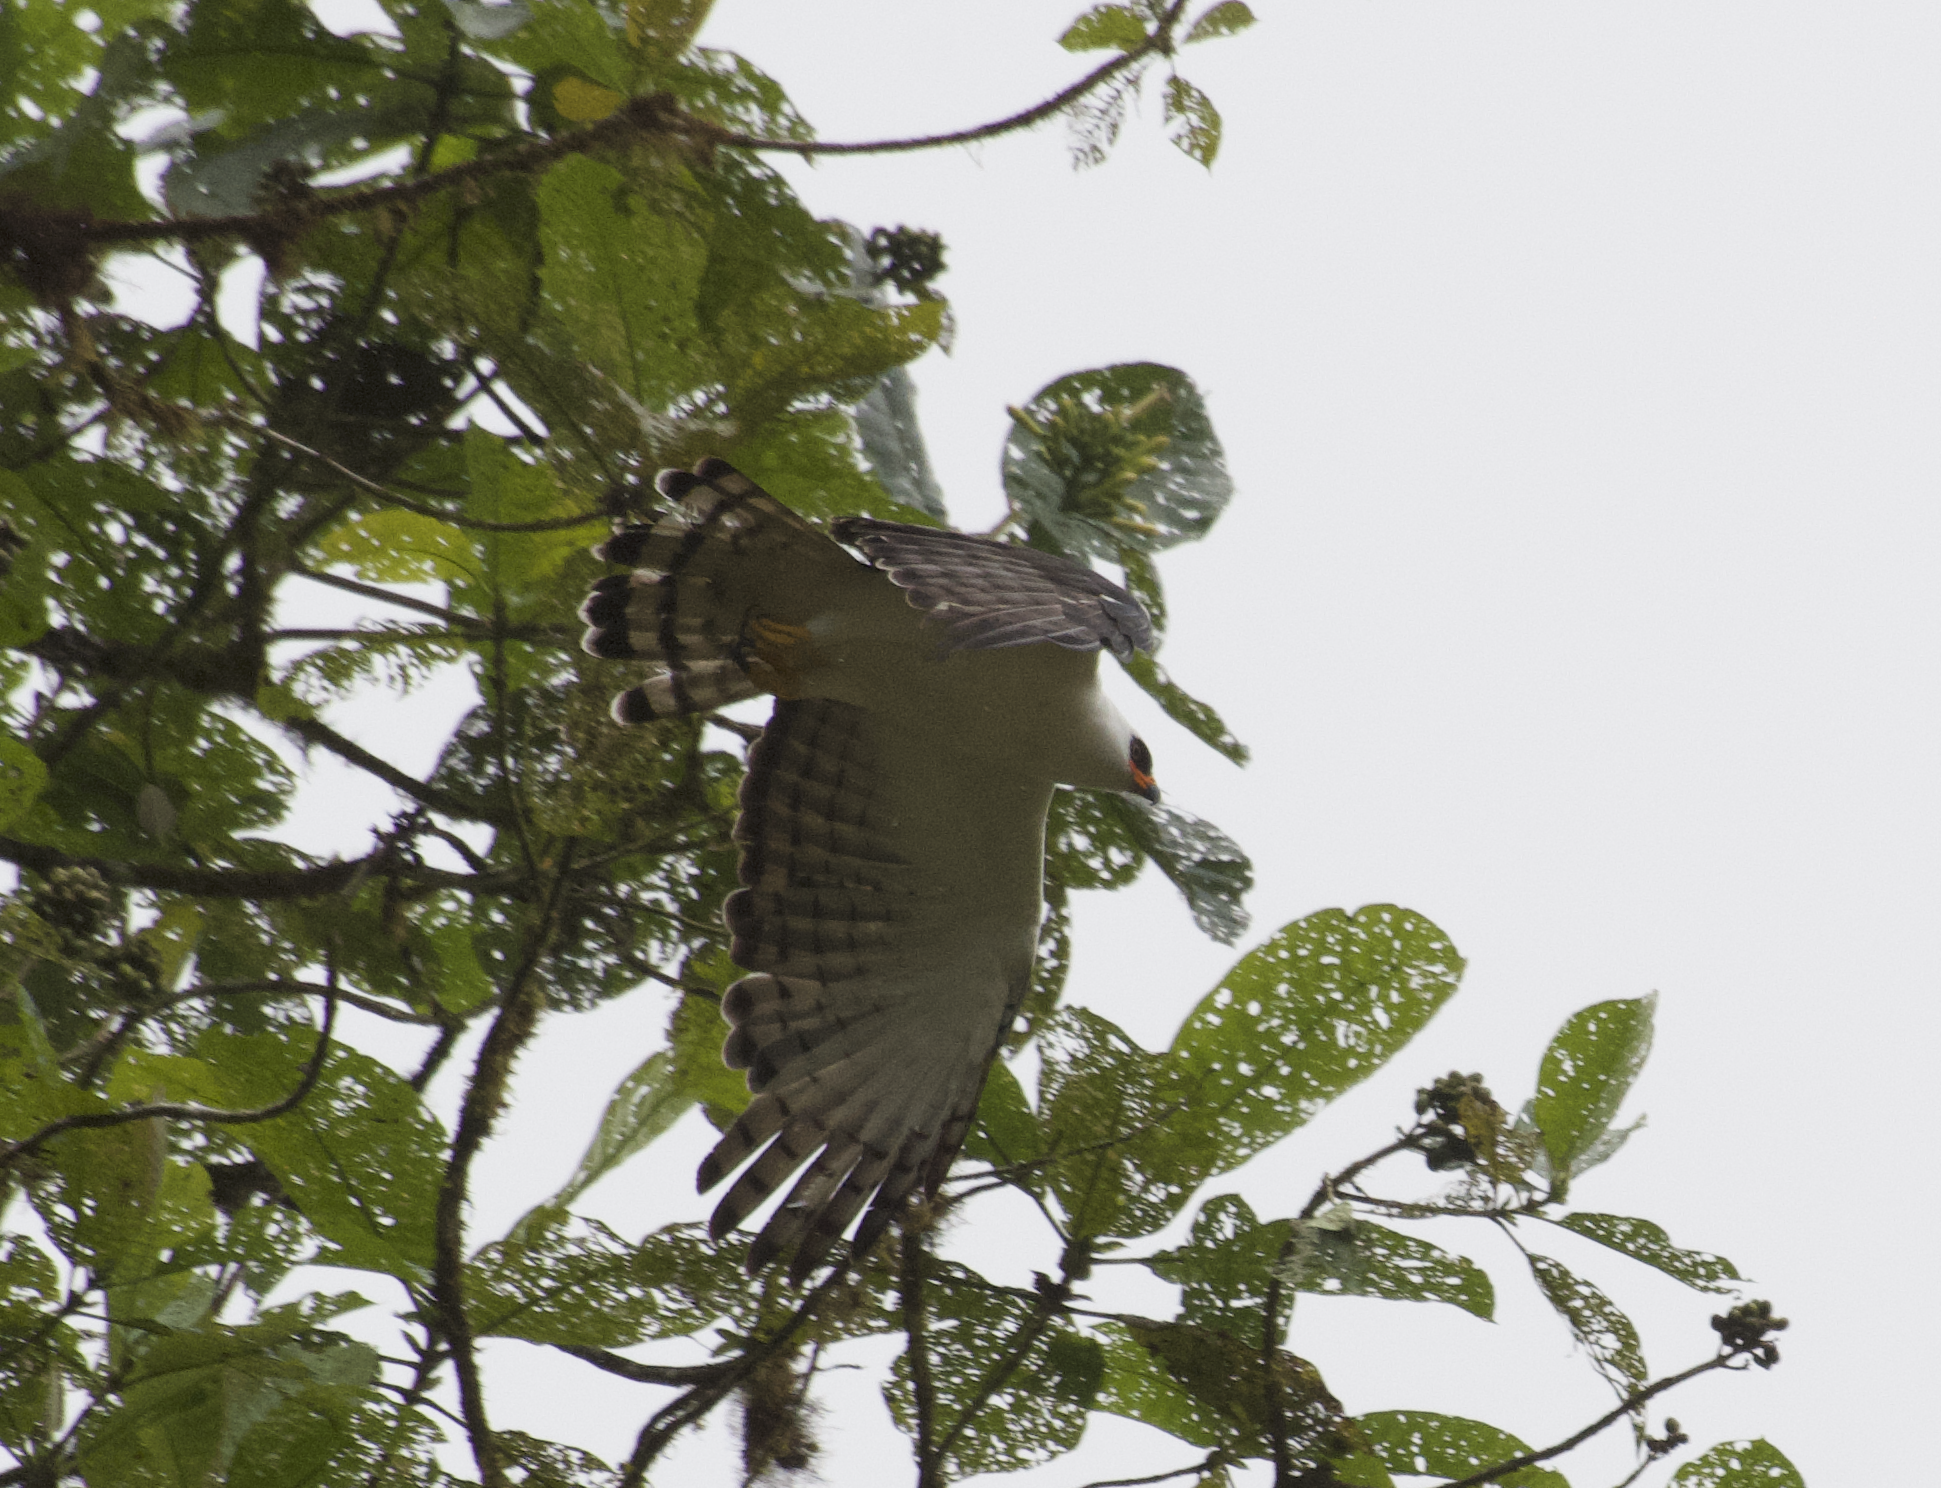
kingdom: Animalia
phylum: Chordata
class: Aves
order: Accipitriformes
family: Accipitridae
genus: Spizaetus
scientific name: Spizaetus melanoleucus
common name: Black-and-white hawk-eagle
